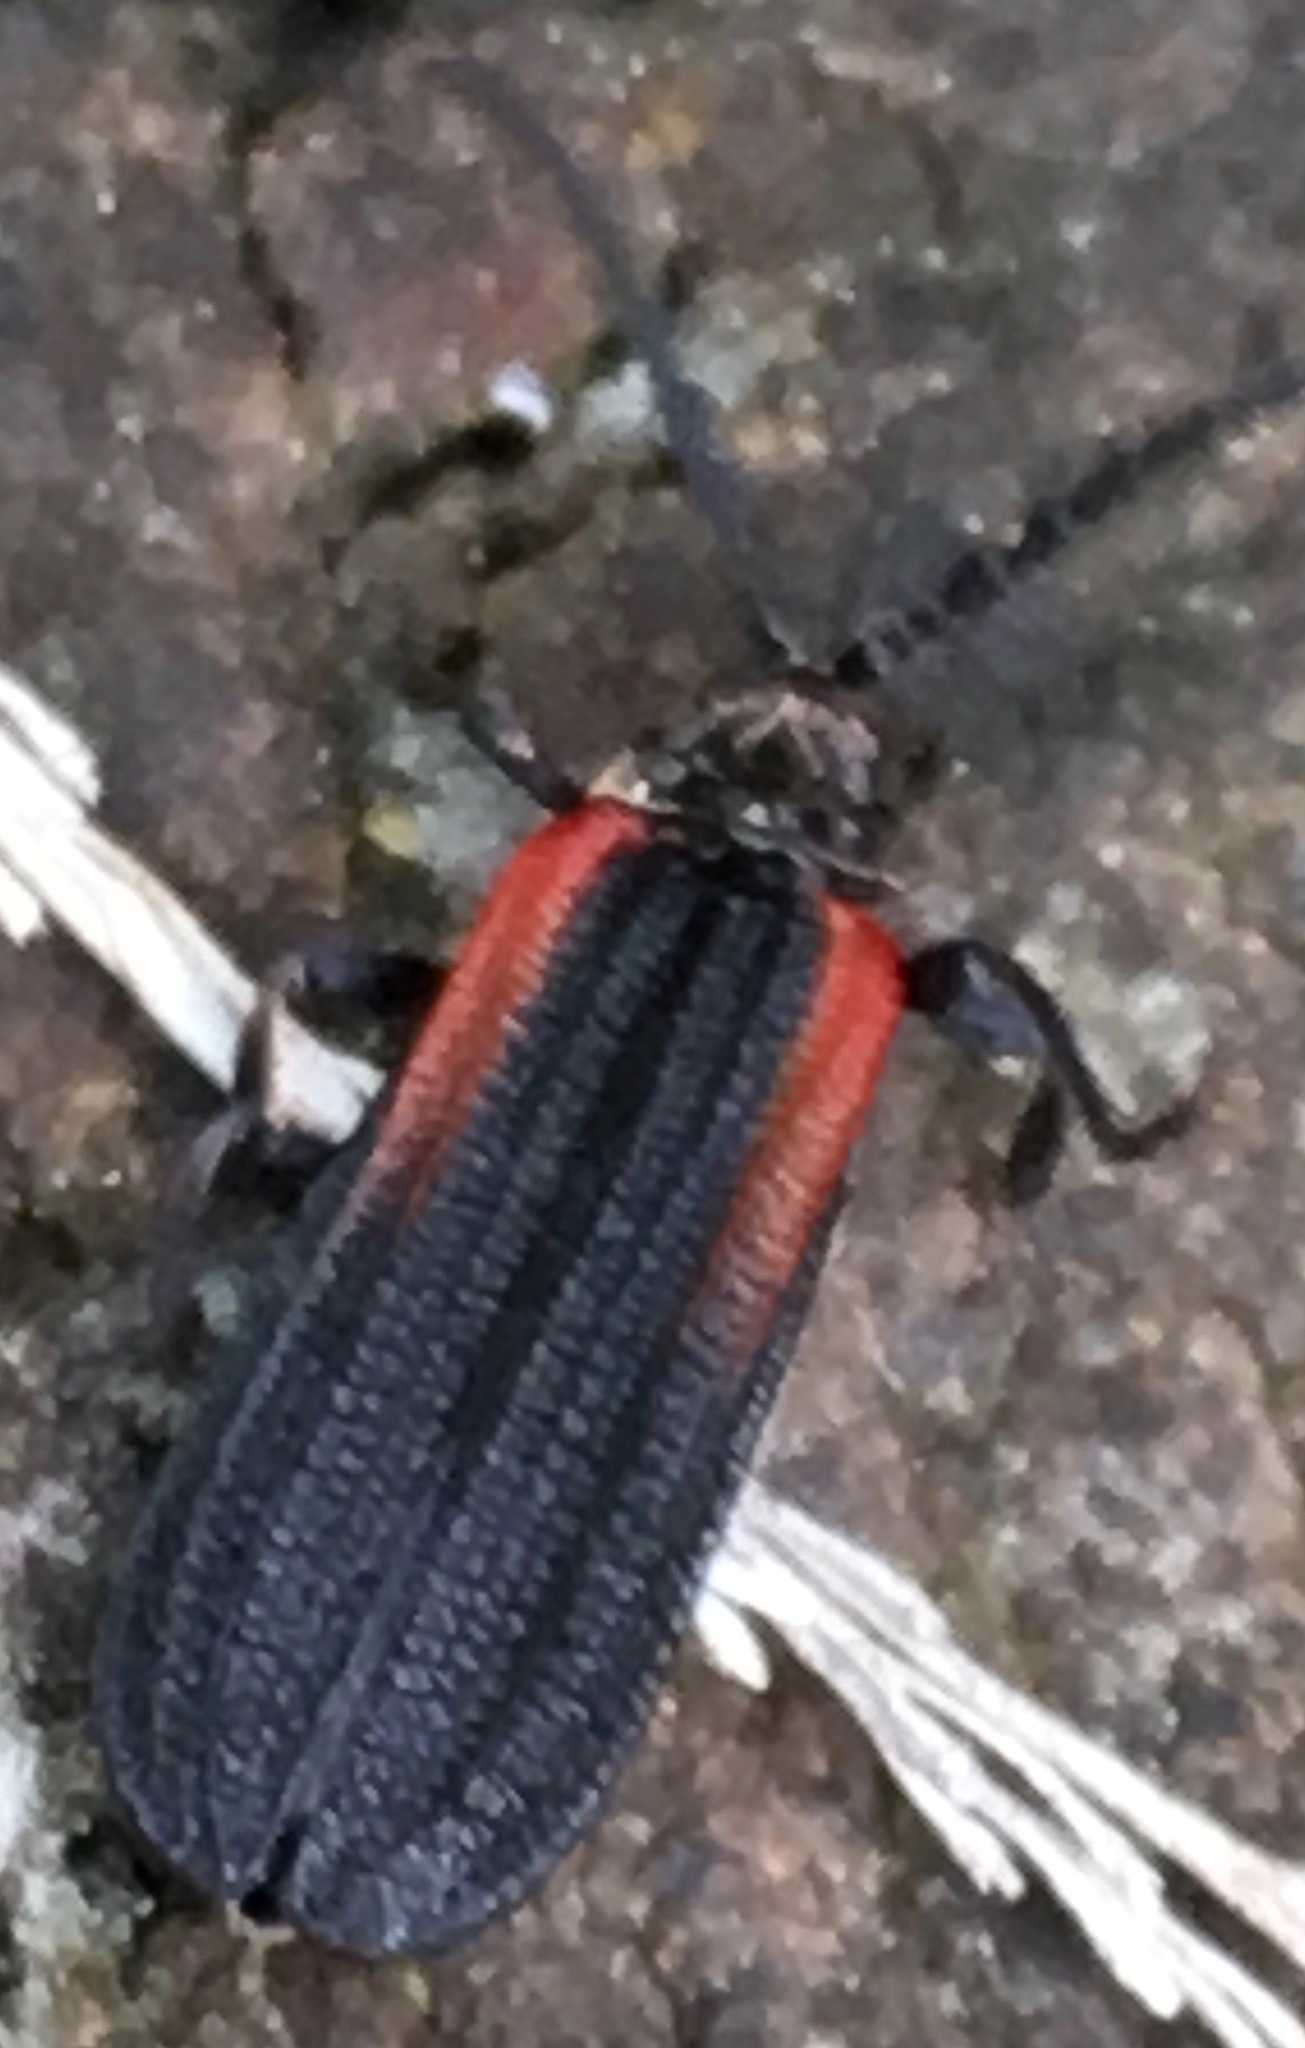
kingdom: Animalia
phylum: Arthropoda
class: Insecta
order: Coleoptera
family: Lycidae
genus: Greenarus
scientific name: Greenarus thoracicus
